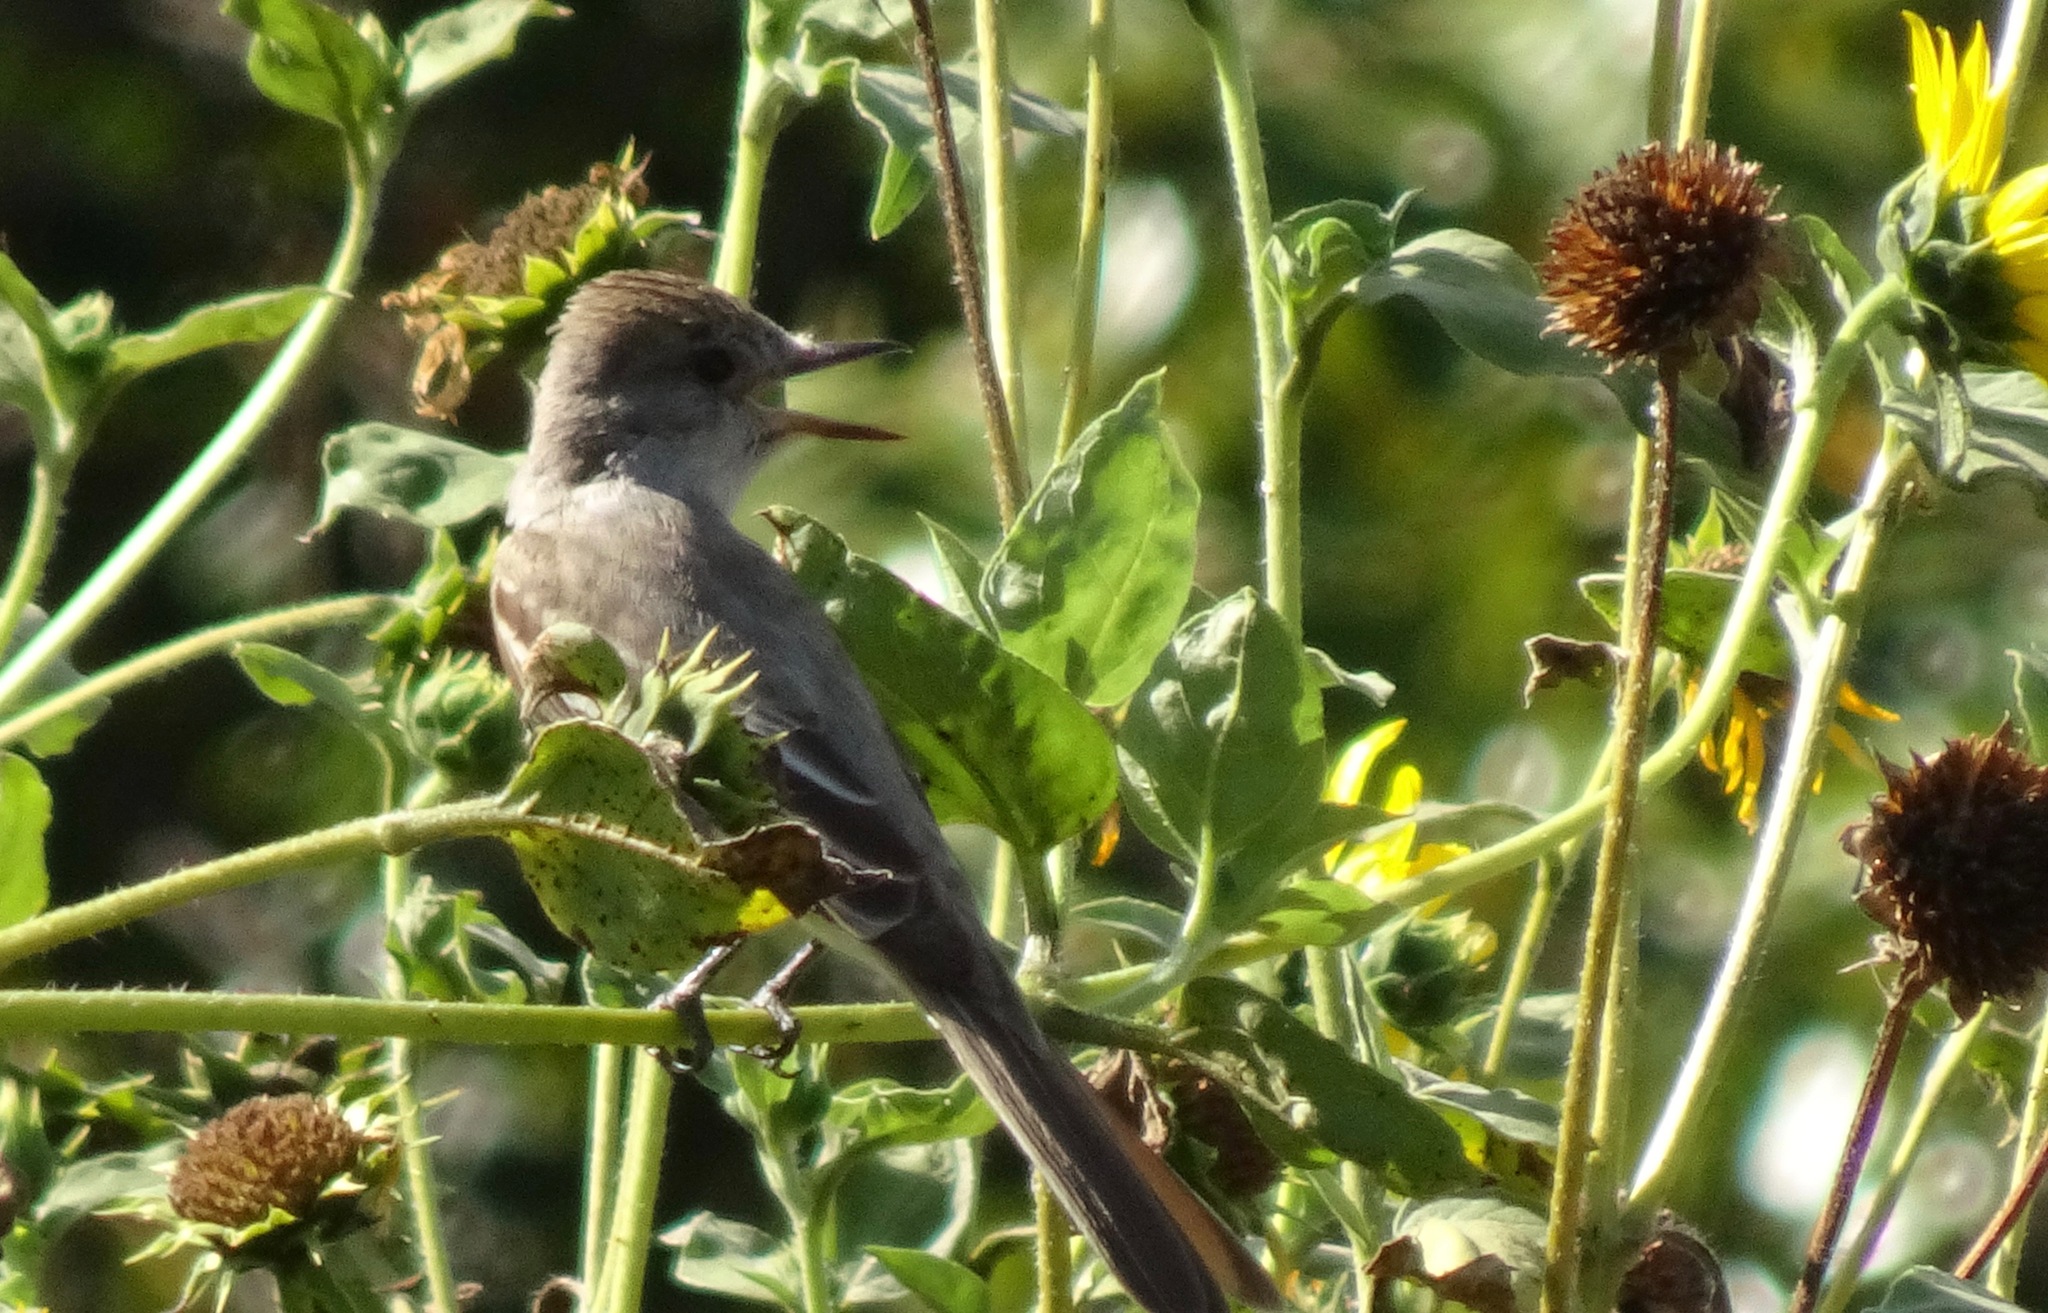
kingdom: Animalia
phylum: Chordata
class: Aves
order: Passeriformes
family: Tyrannidae
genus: Myiarchus
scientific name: Myiarchus cinerascens
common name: Ash-throated flycatcher
